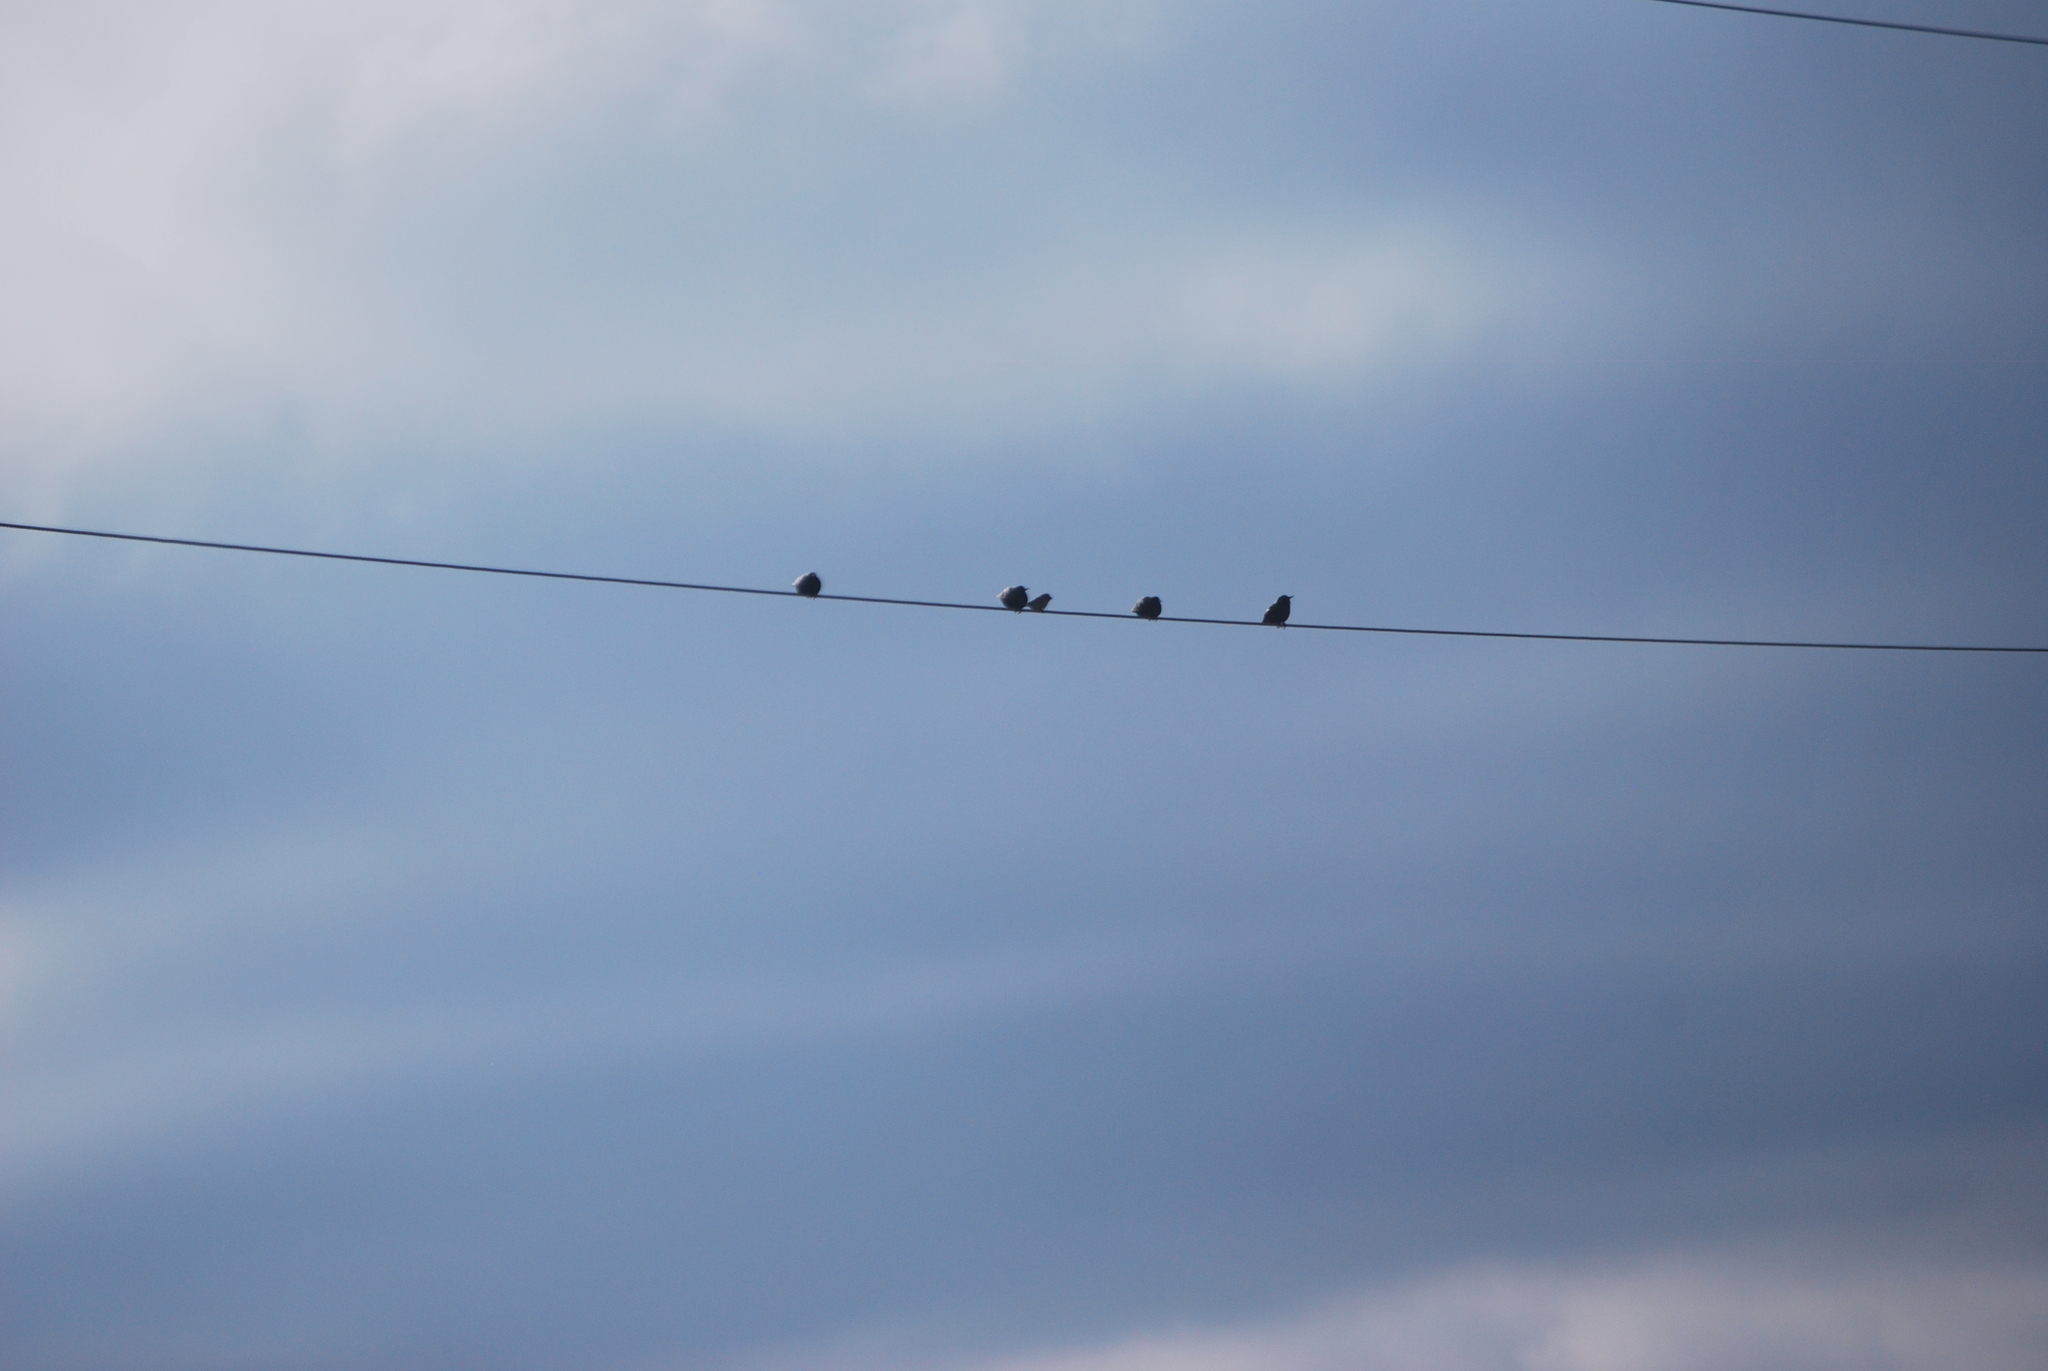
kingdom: Animalia
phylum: Chordata
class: Aves
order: Passeriformes
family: Sturnidae
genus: Sturnus
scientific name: Sturnus vulgaris
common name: Common starling
